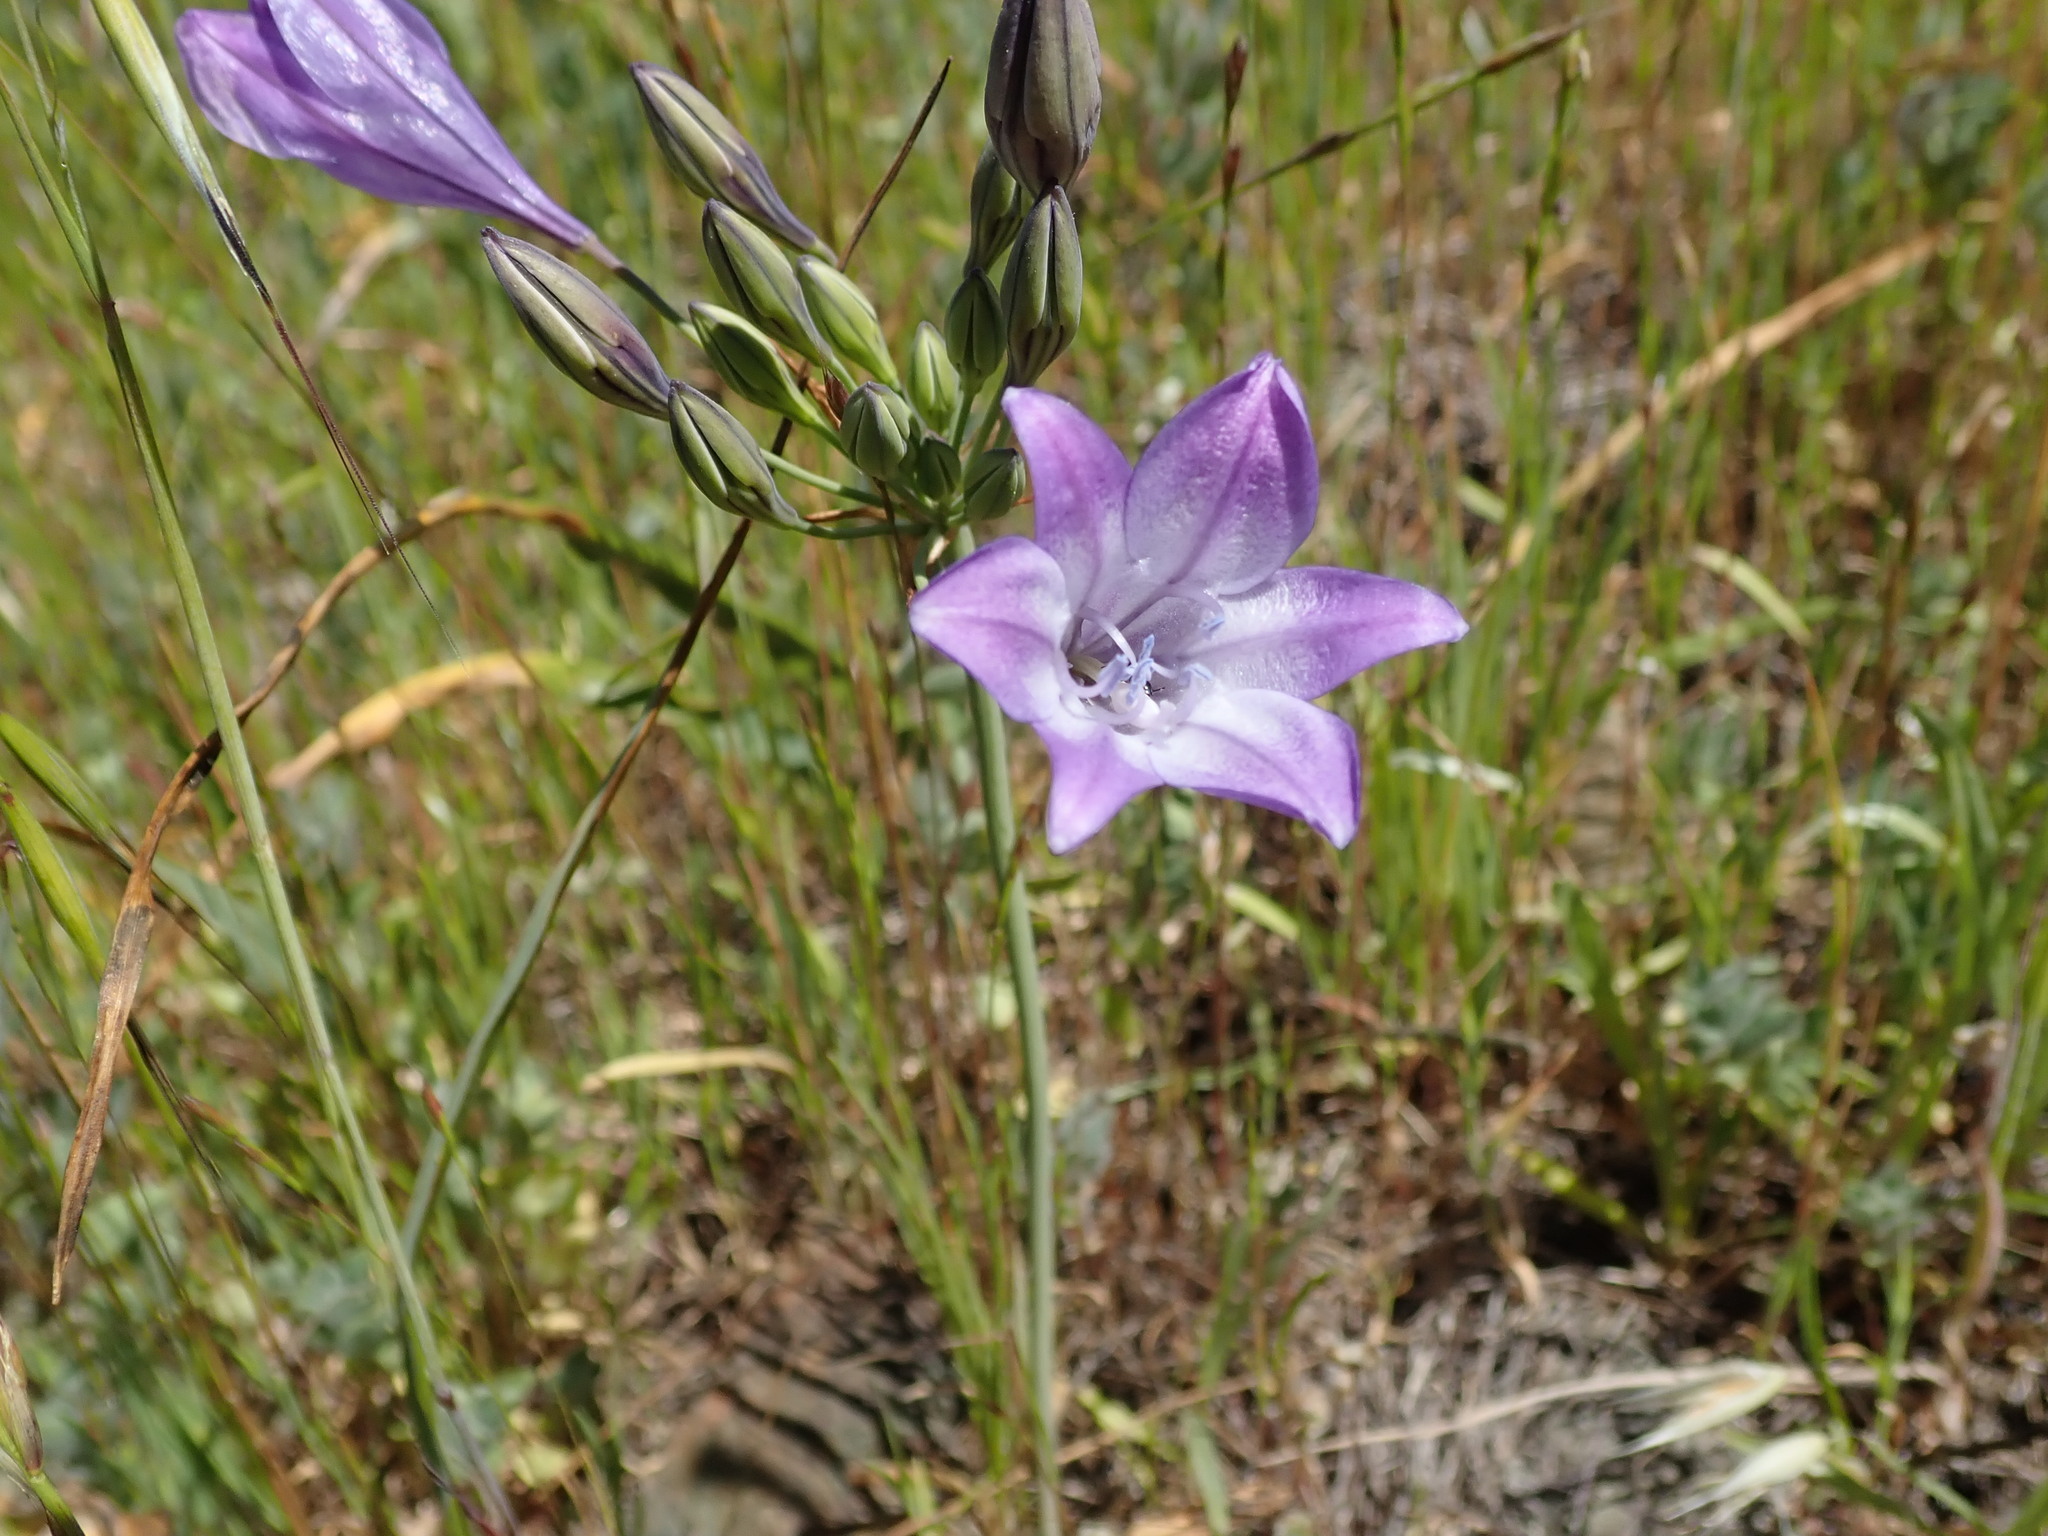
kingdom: Plantae
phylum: Tracheophyta
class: Liliopsida
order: Asparagales
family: Asparagaceae
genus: Triteleia
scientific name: Triteleia laxa
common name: Triplet-lily
